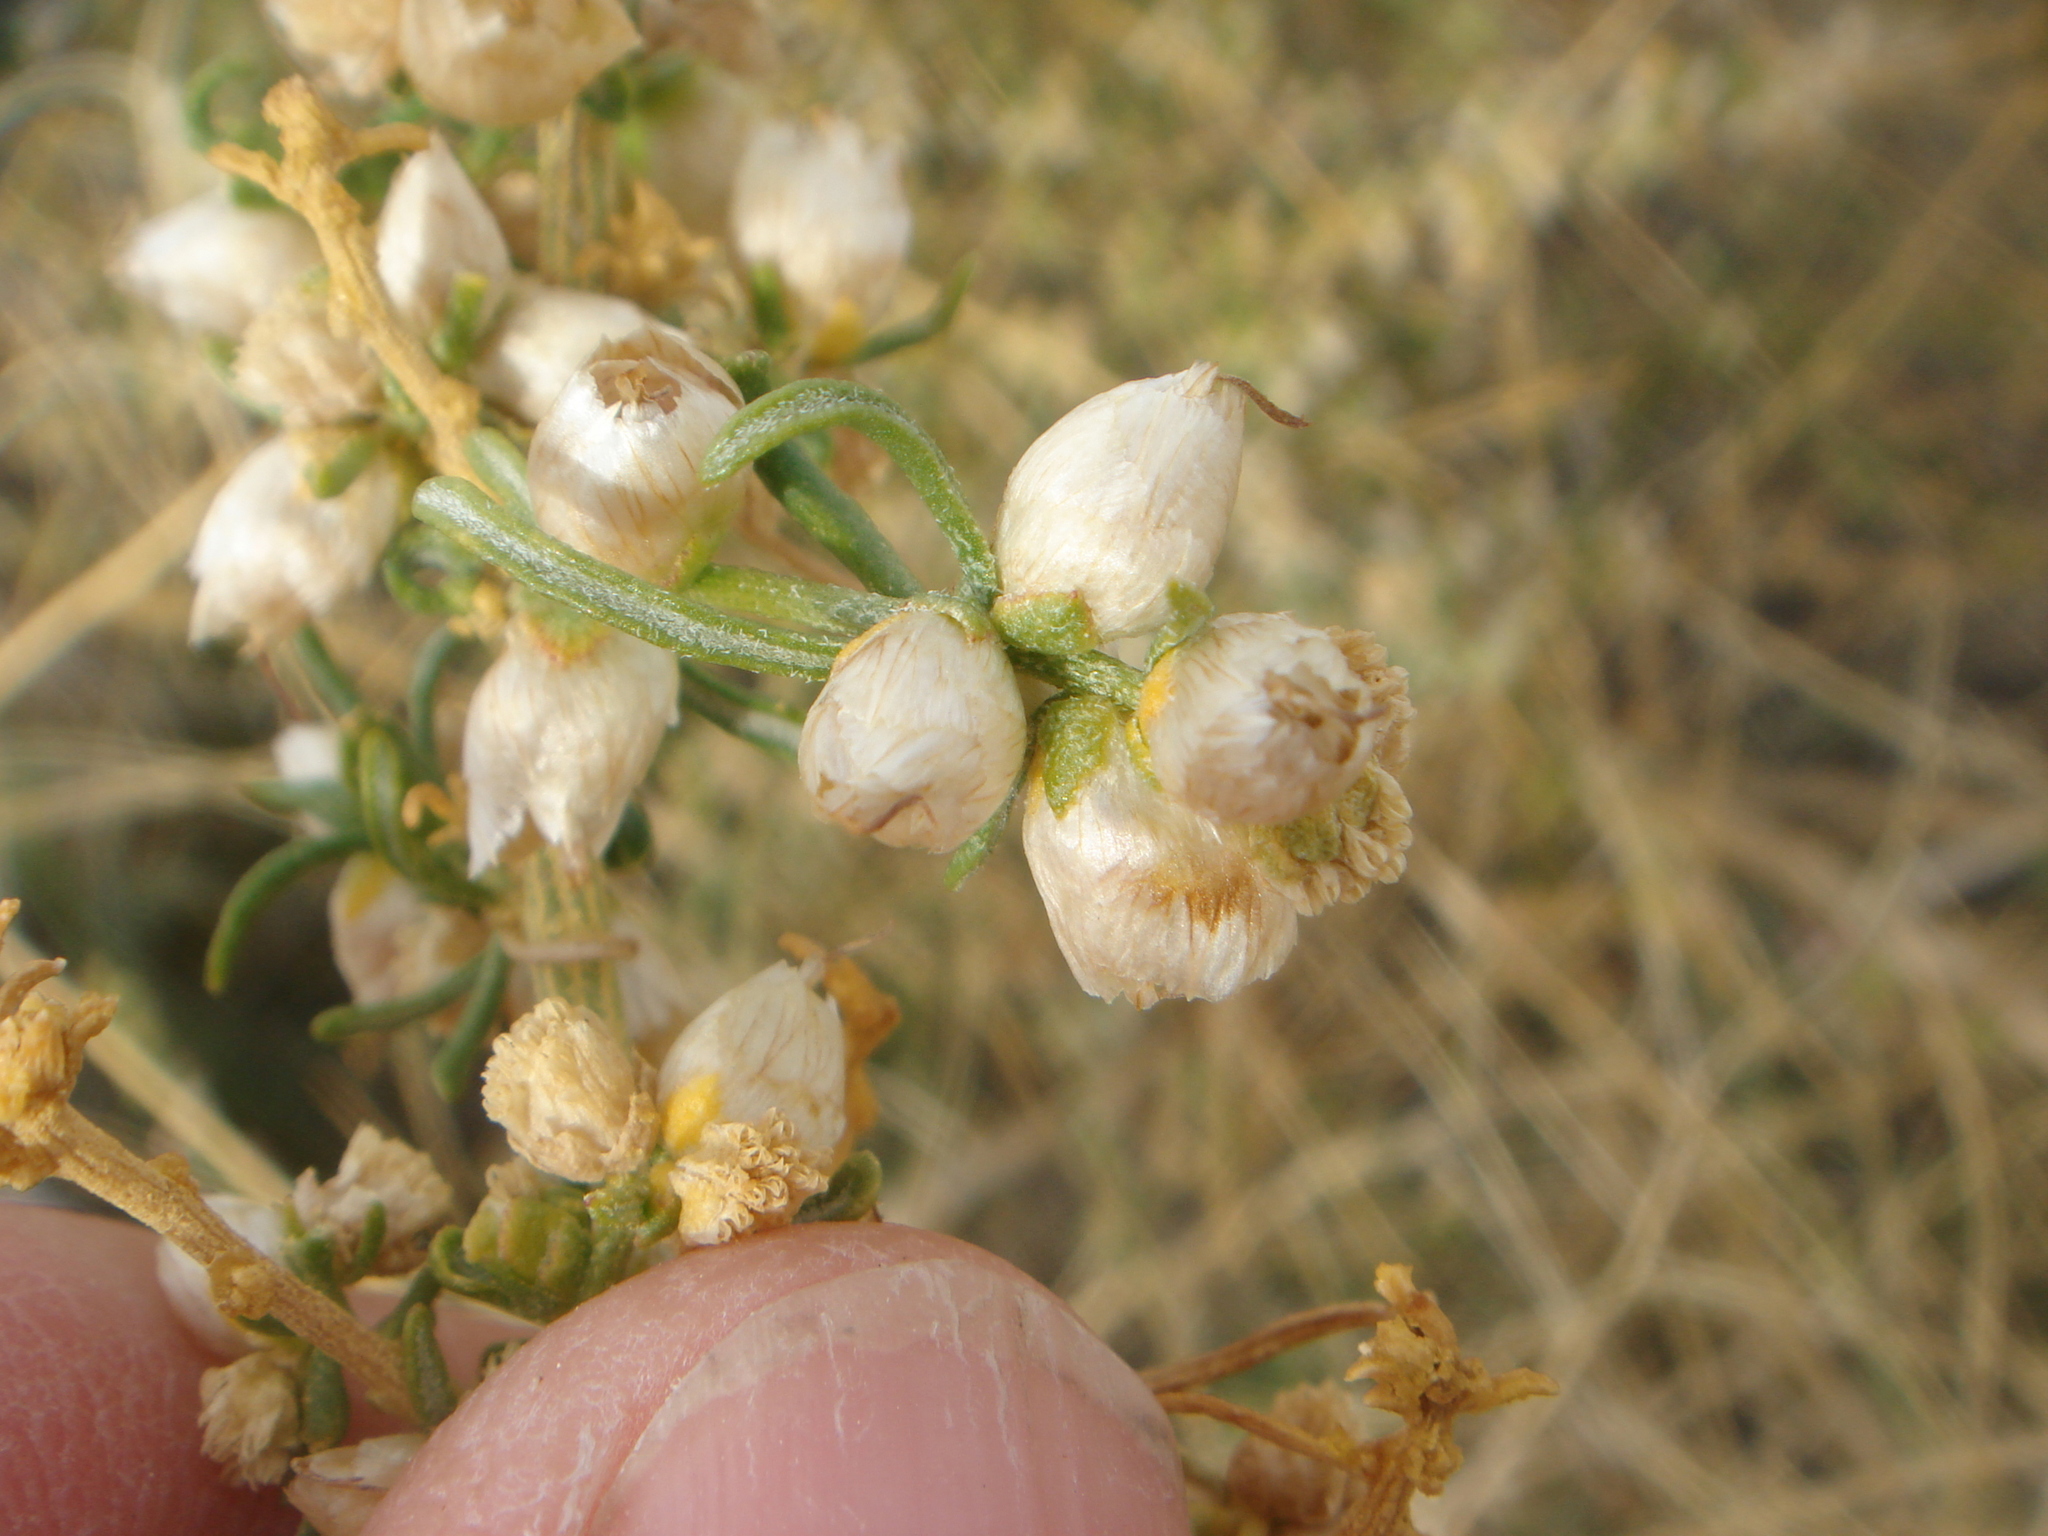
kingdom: Plantae
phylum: Tracheophyta
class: Magnoliopsida
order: Asterales
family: Asteraceae
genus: Ambrosia
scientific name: Ambrosia salsola
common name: Burrobrush
